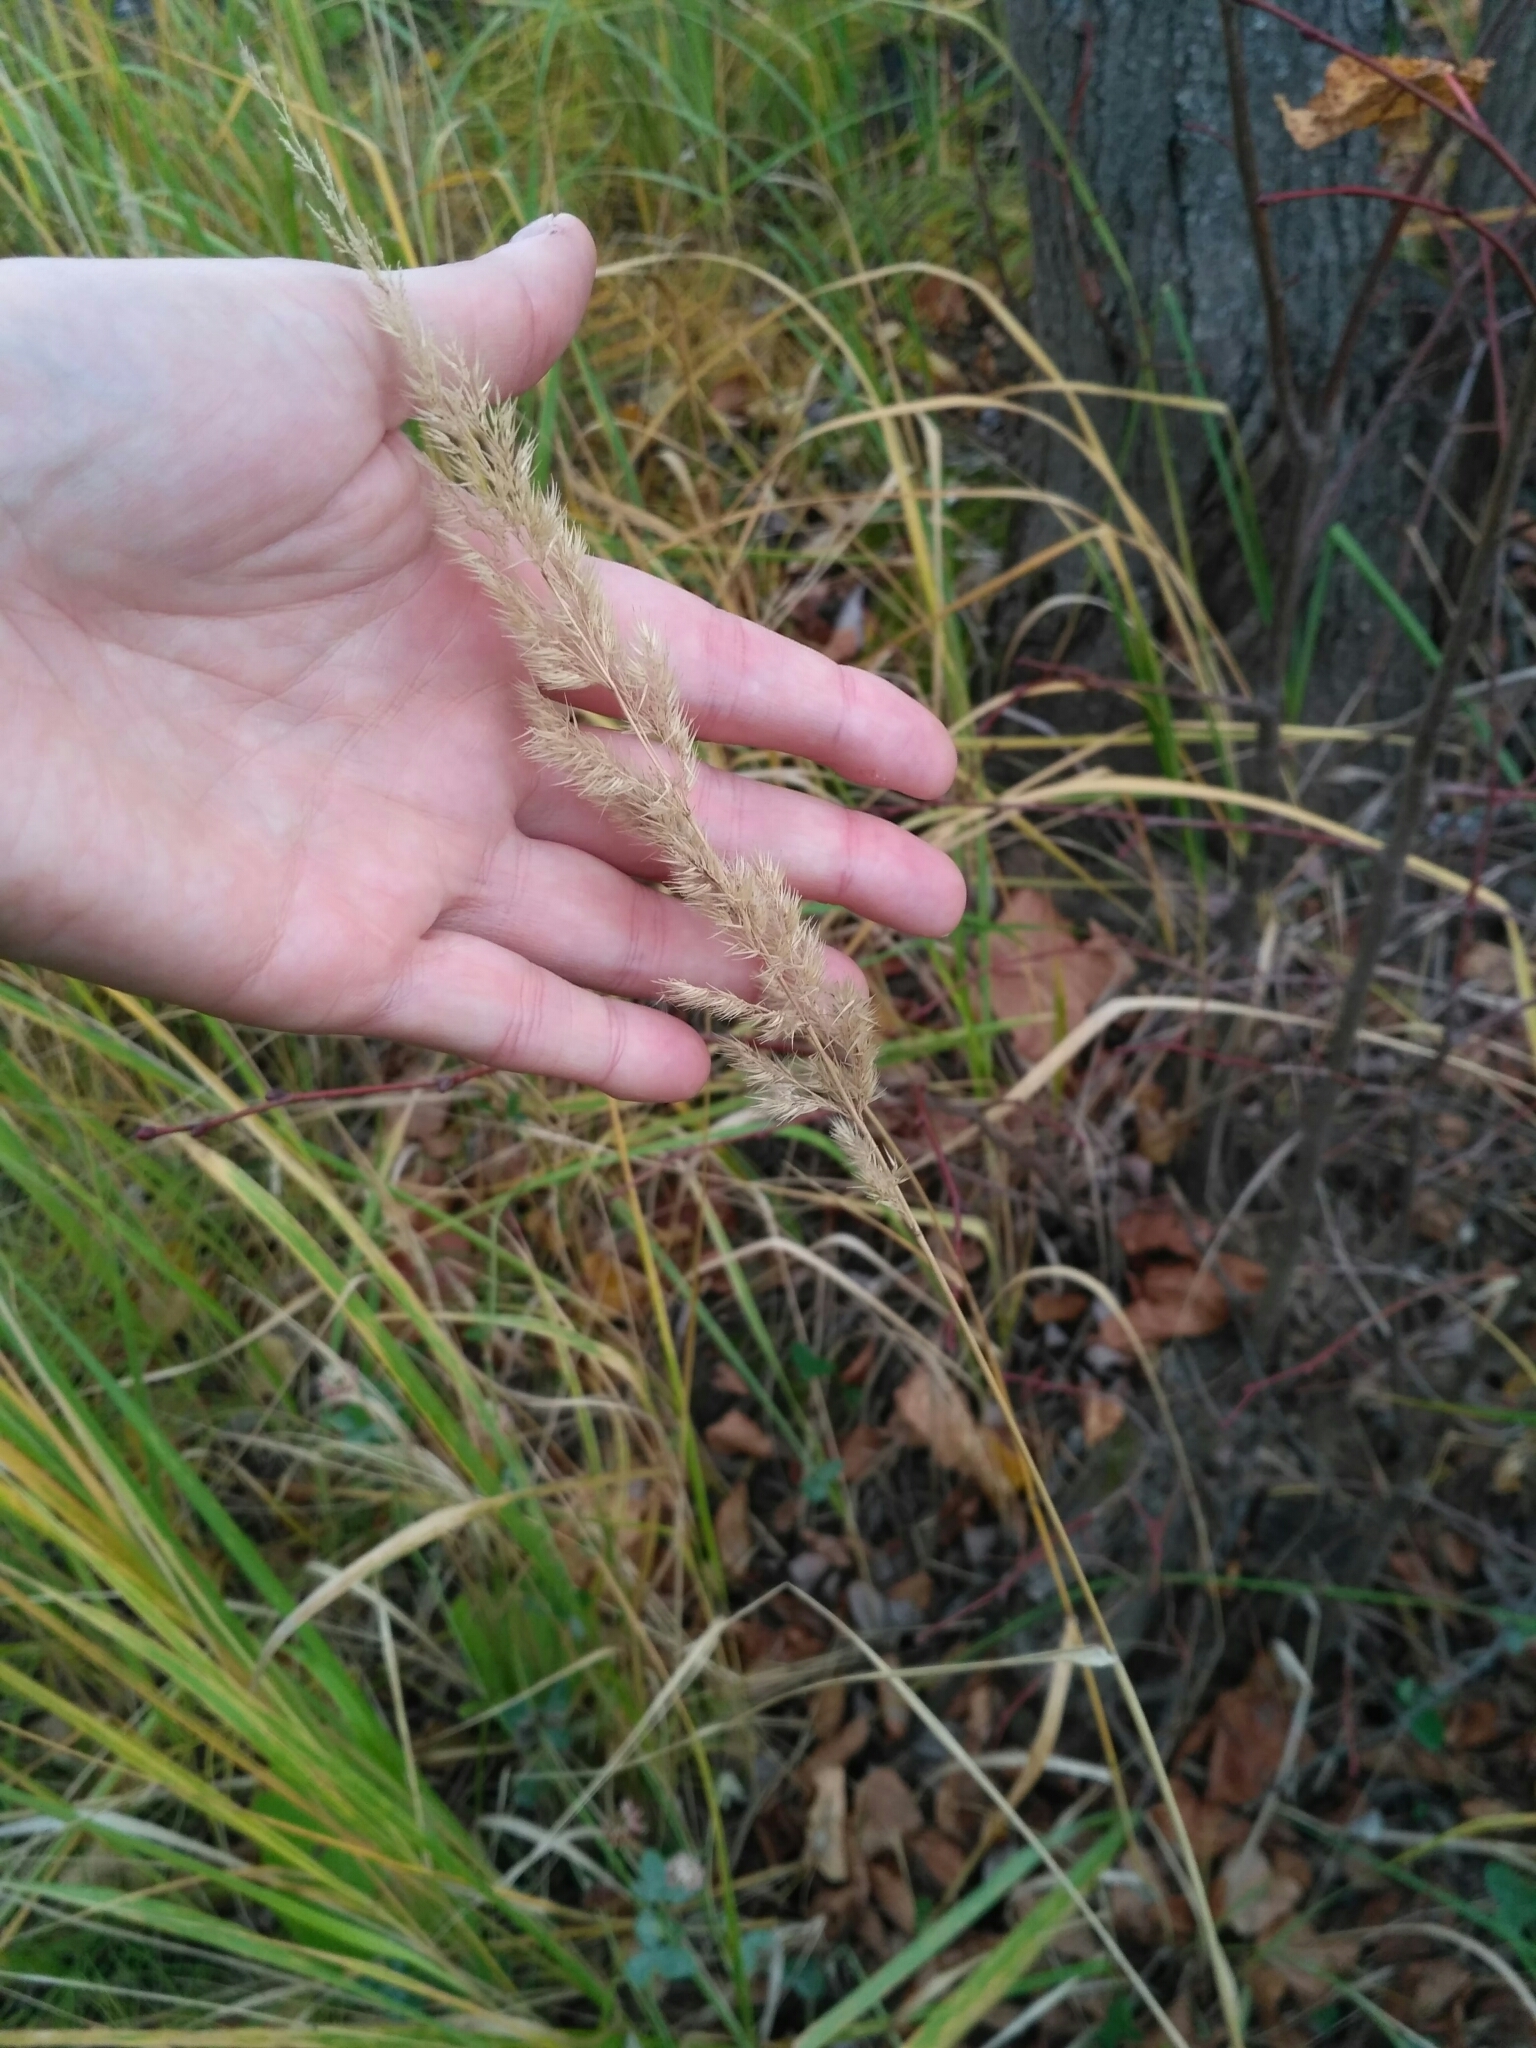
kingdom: Plantae
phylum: Tracheophyta
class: Liliopsida
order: Poales
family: Poaceae
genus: Calamagrostis
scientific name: Calamagrostis epigejos
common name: Wood small-reed
